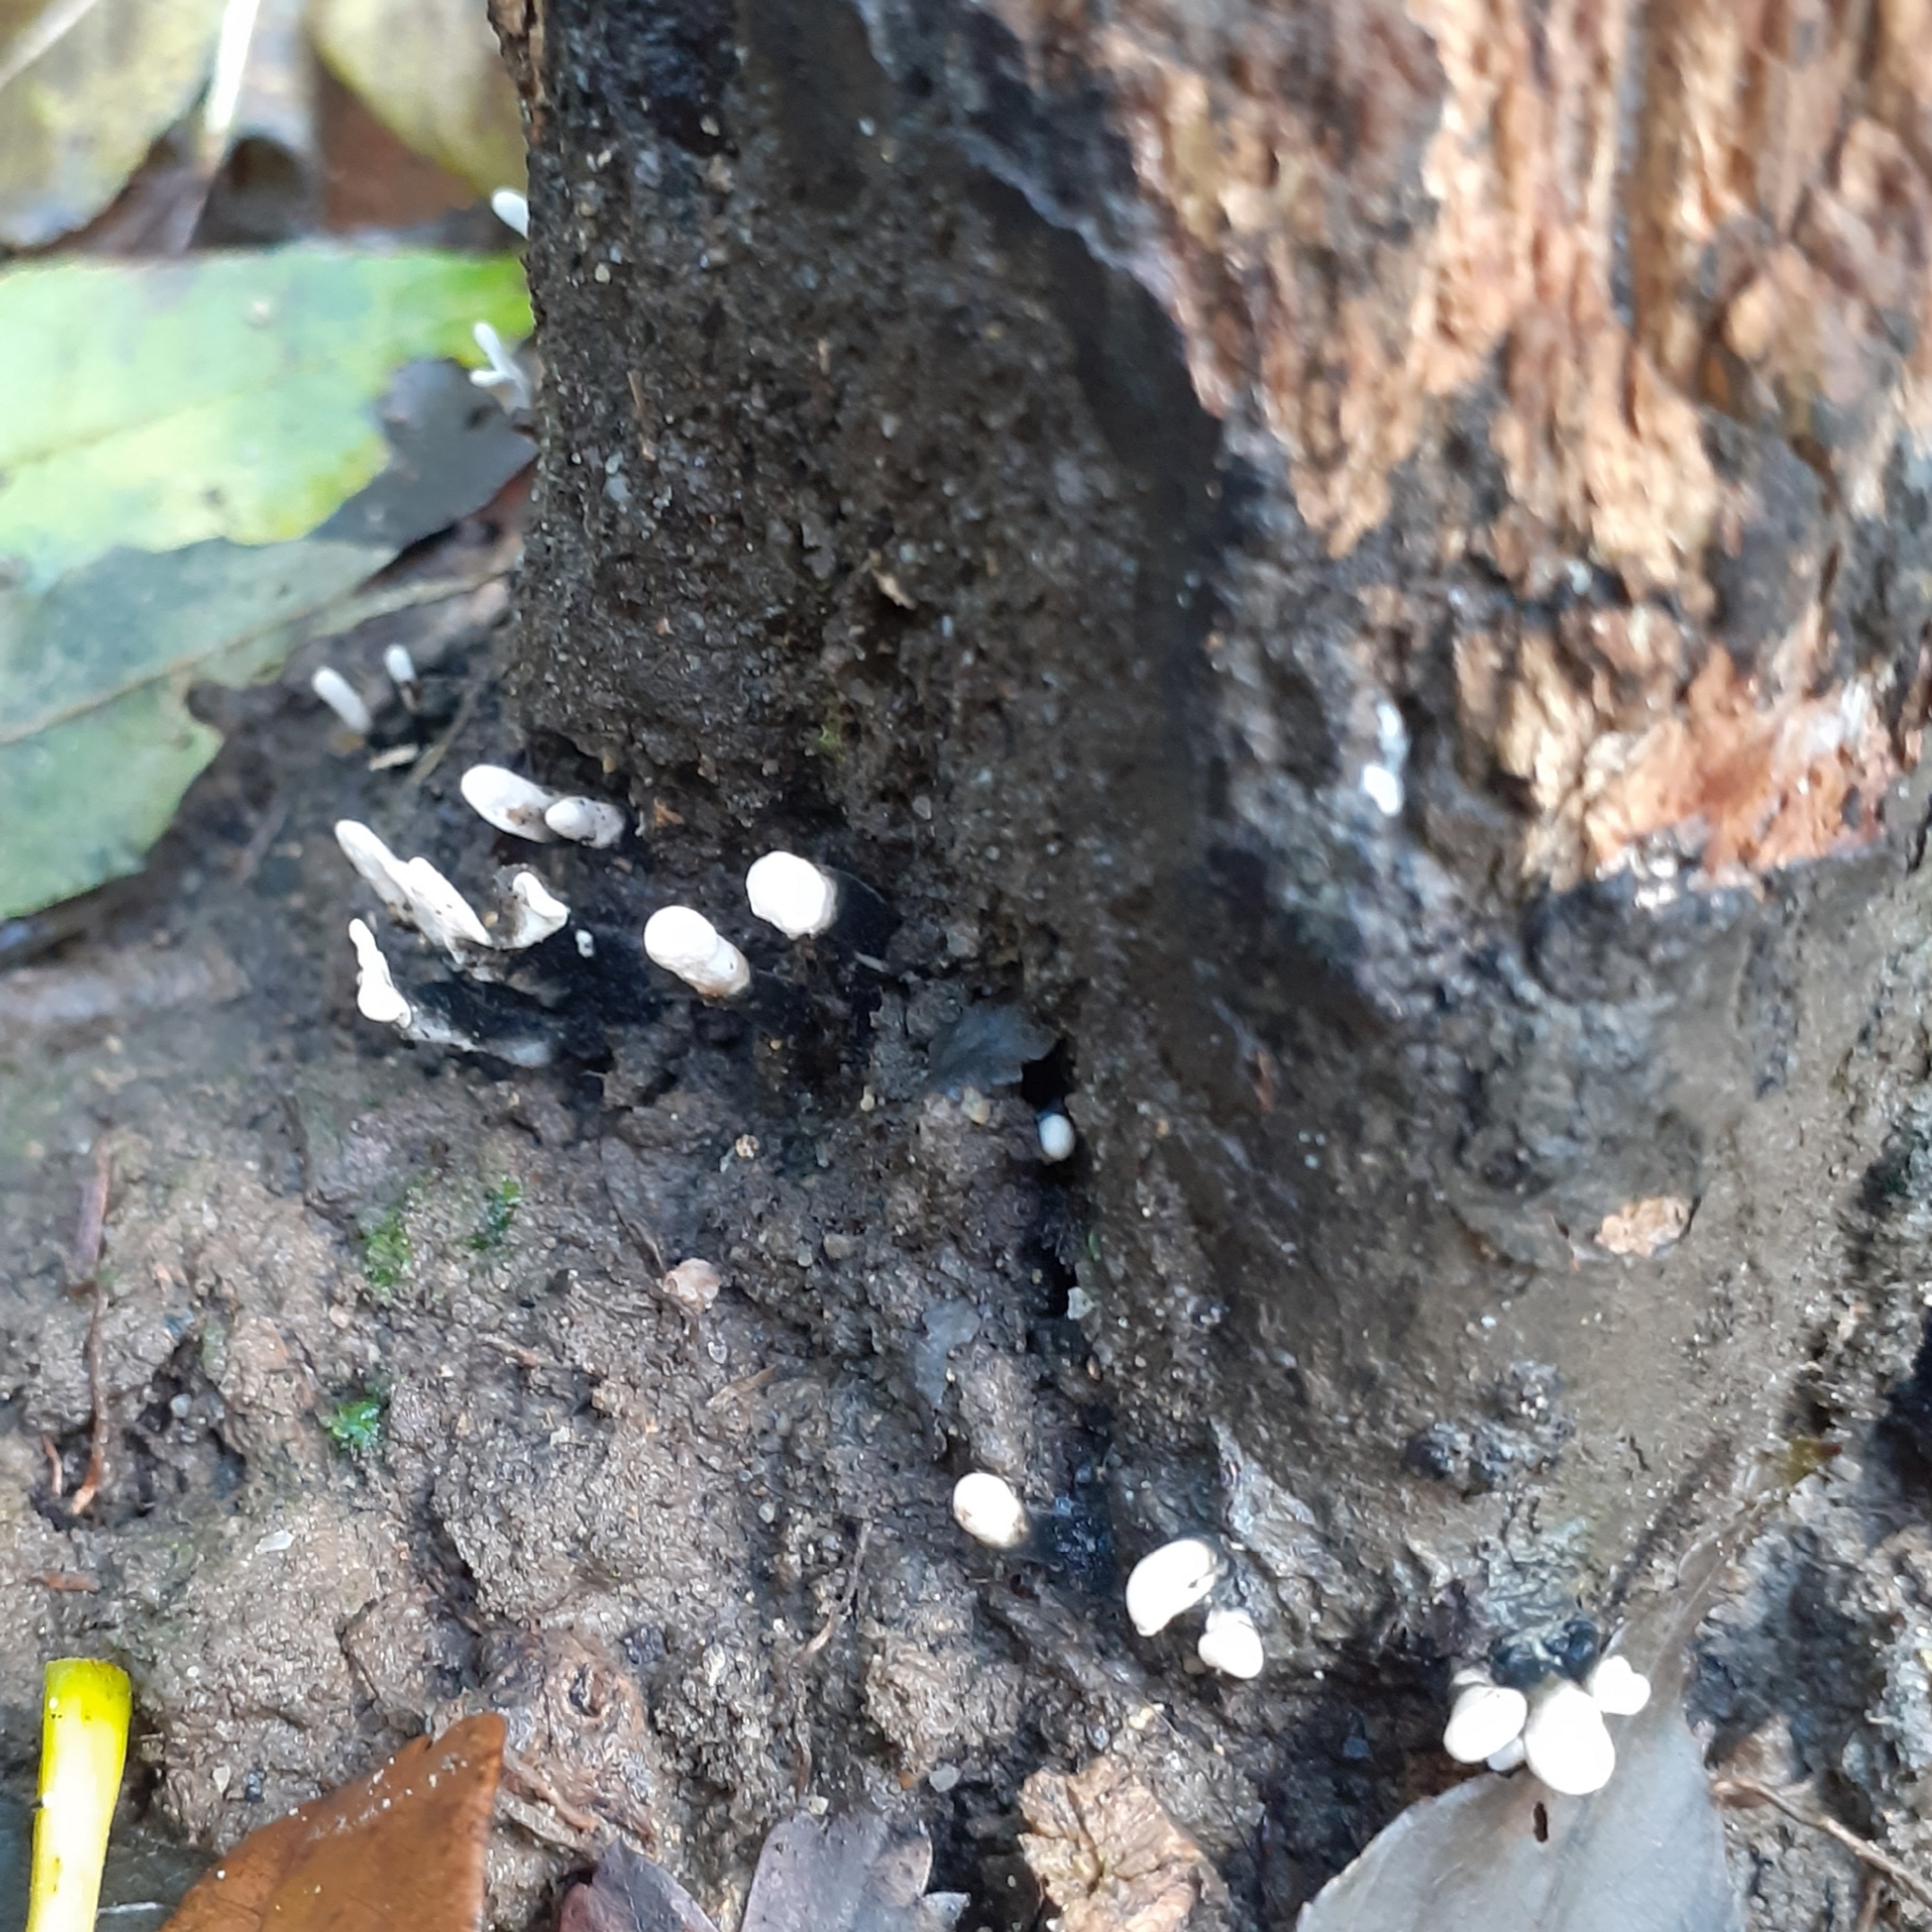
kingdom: Fungi
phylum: Ascomycota
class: Sordariomycetes
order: Xylariales
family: Xylariaceae
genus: Xylaria
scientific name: Xylaria hypoxylon
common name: Candle-snuff fungus
